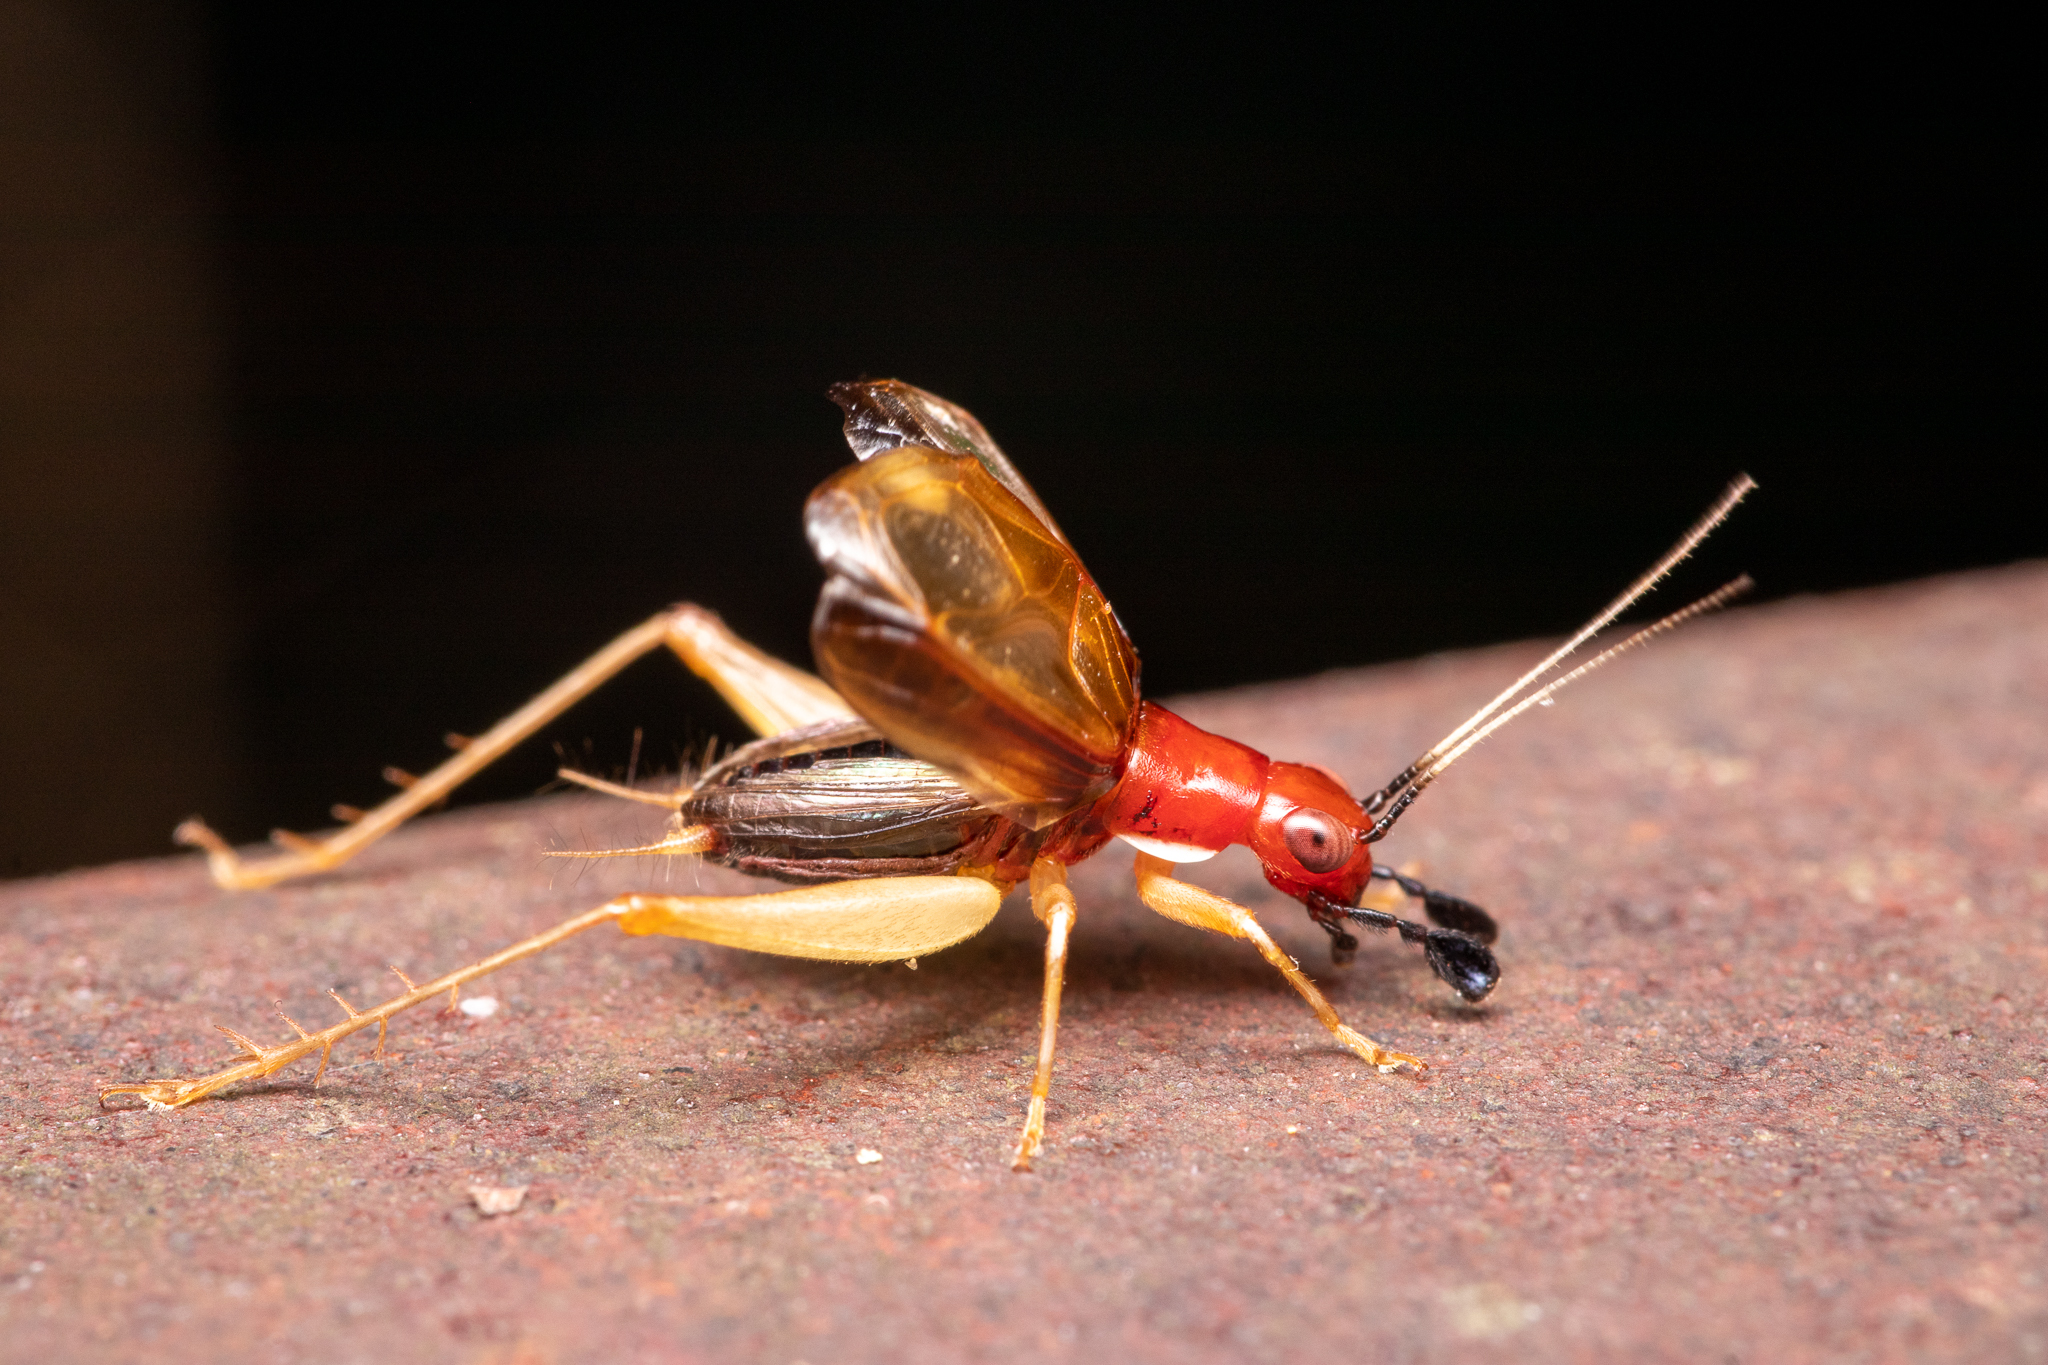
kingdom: Animalia
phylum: Arthropoda
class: Insecta
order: Orthoptera
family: Trigonidiidae
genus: Phyllopalpus
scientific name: Phyllopalpus pulchellus
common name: Handsome trig
